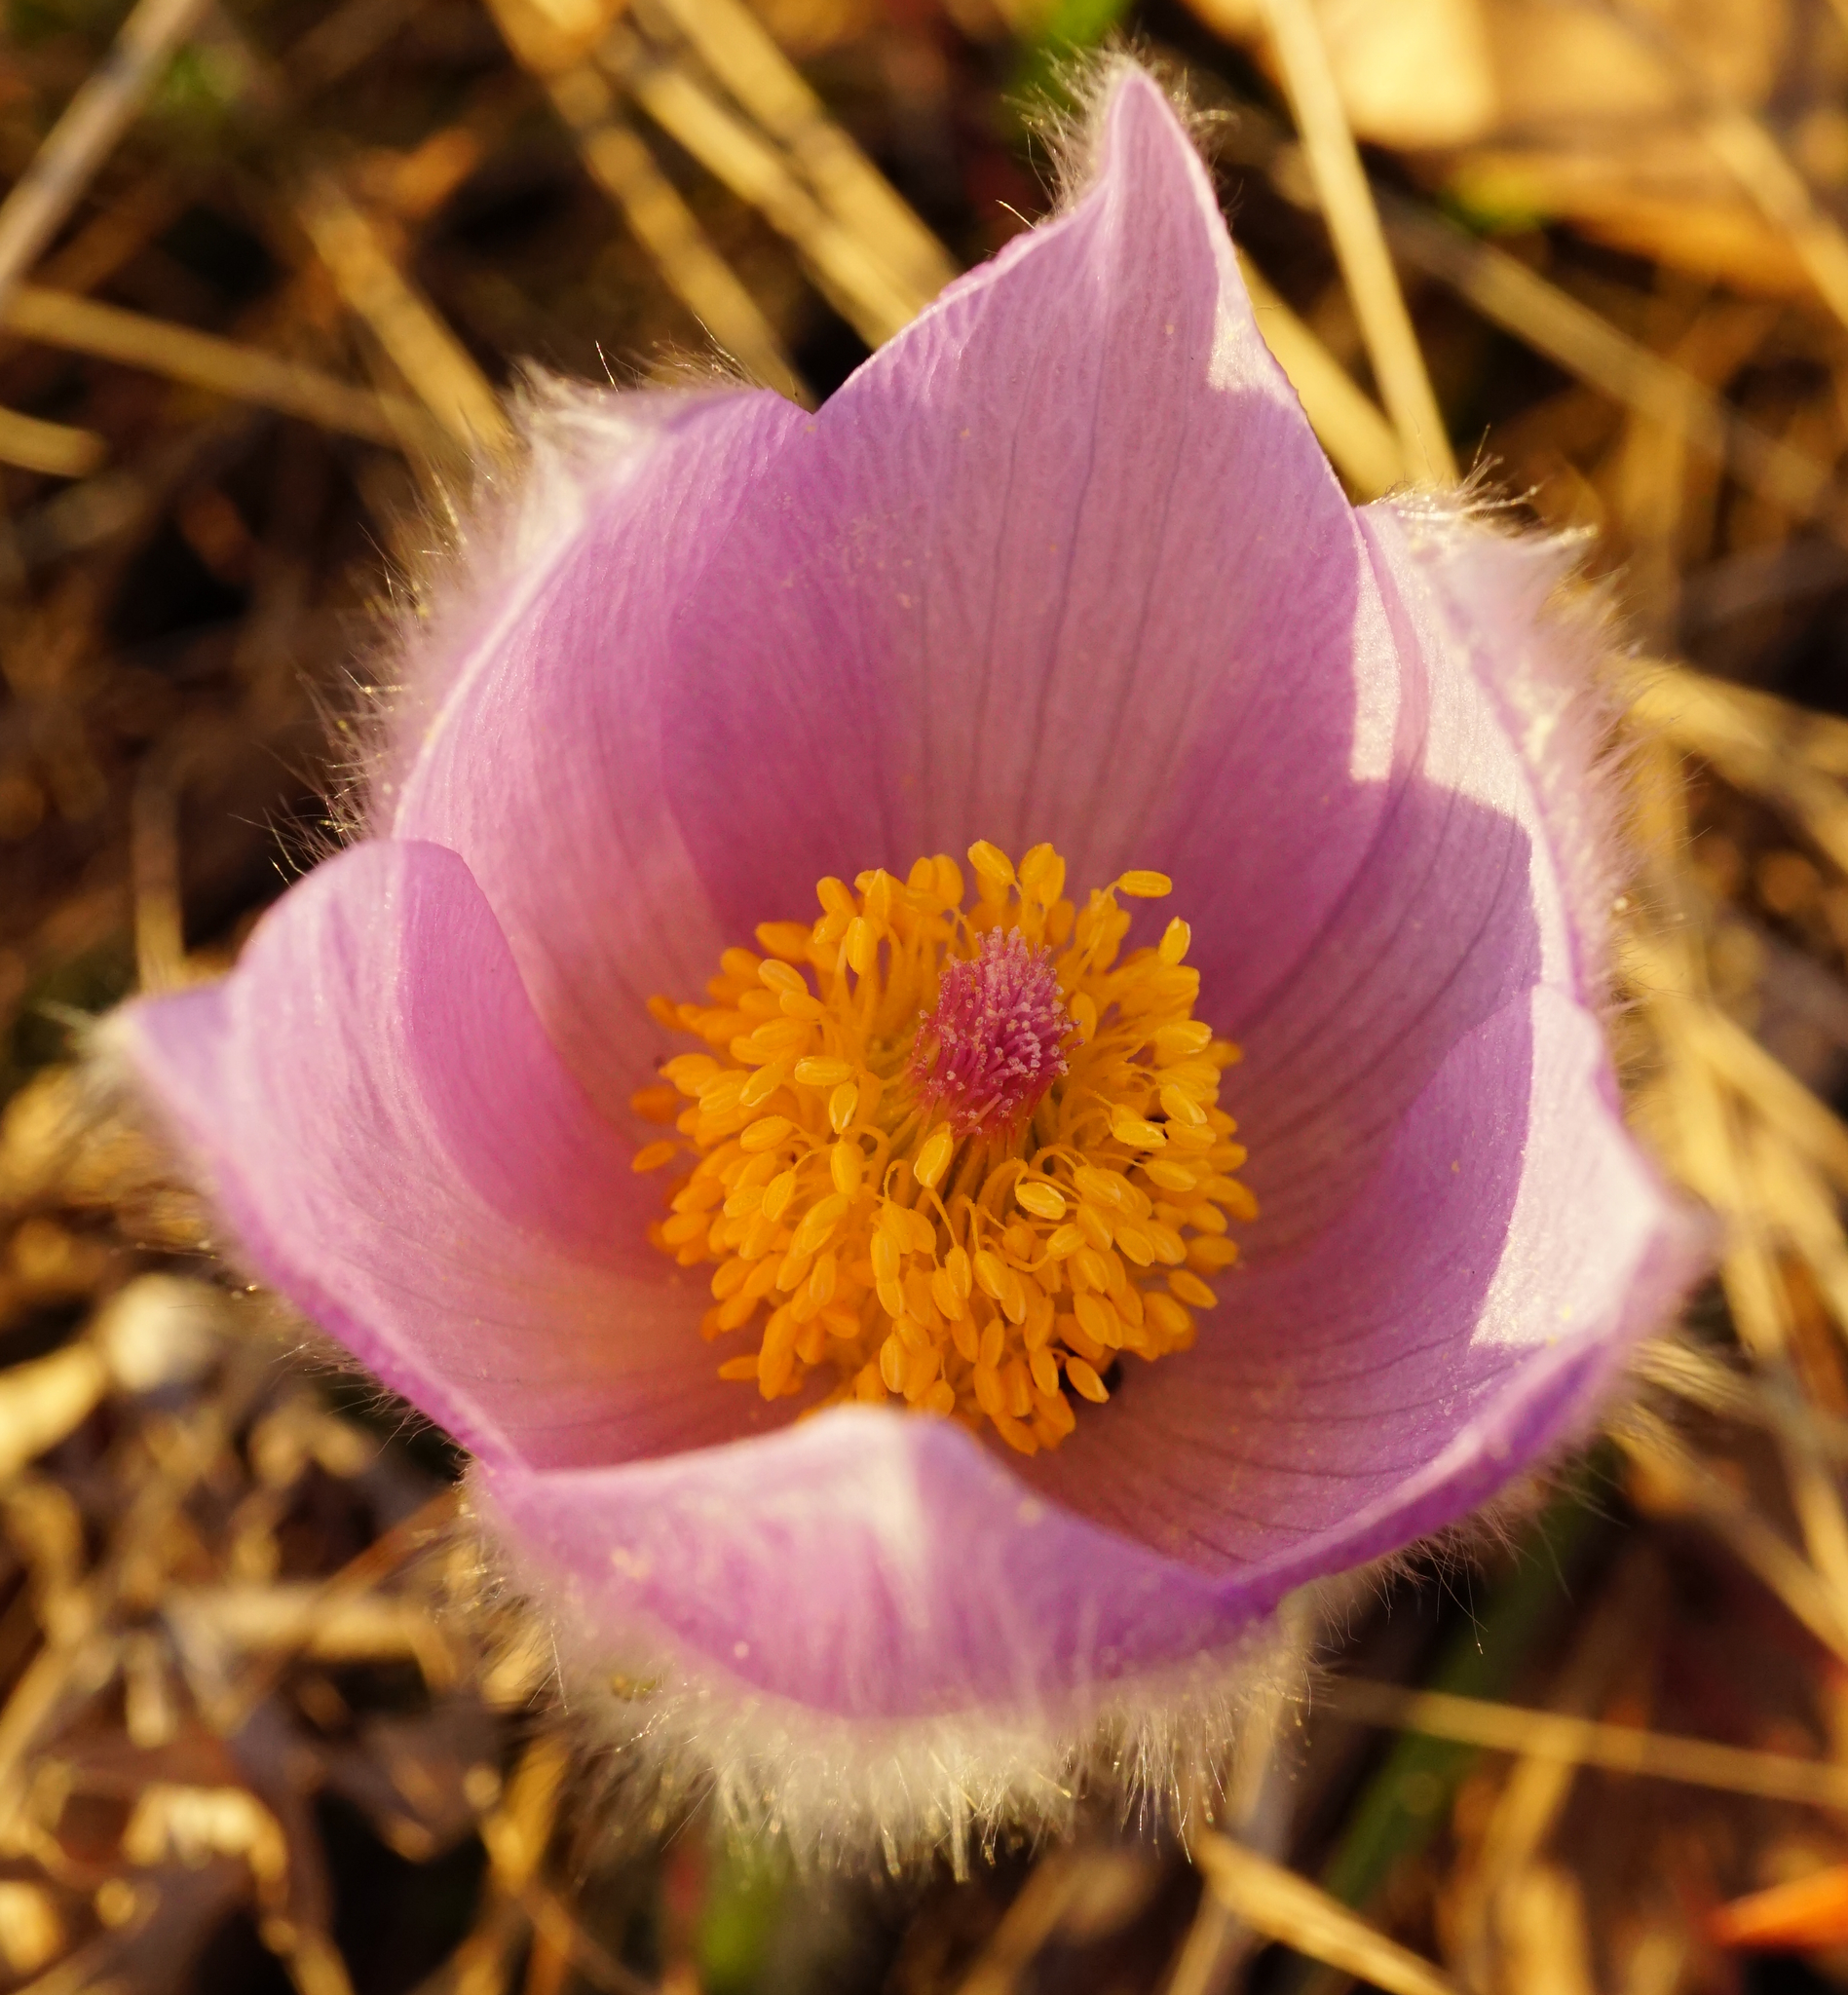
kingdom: Plantae
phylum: Tracheophyta
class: Magnoliopsida
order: Ranunculales
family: Ranunculaceae
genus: Pulsatilla
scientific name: Pulsatilla grandis
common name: Greater pasque flower
